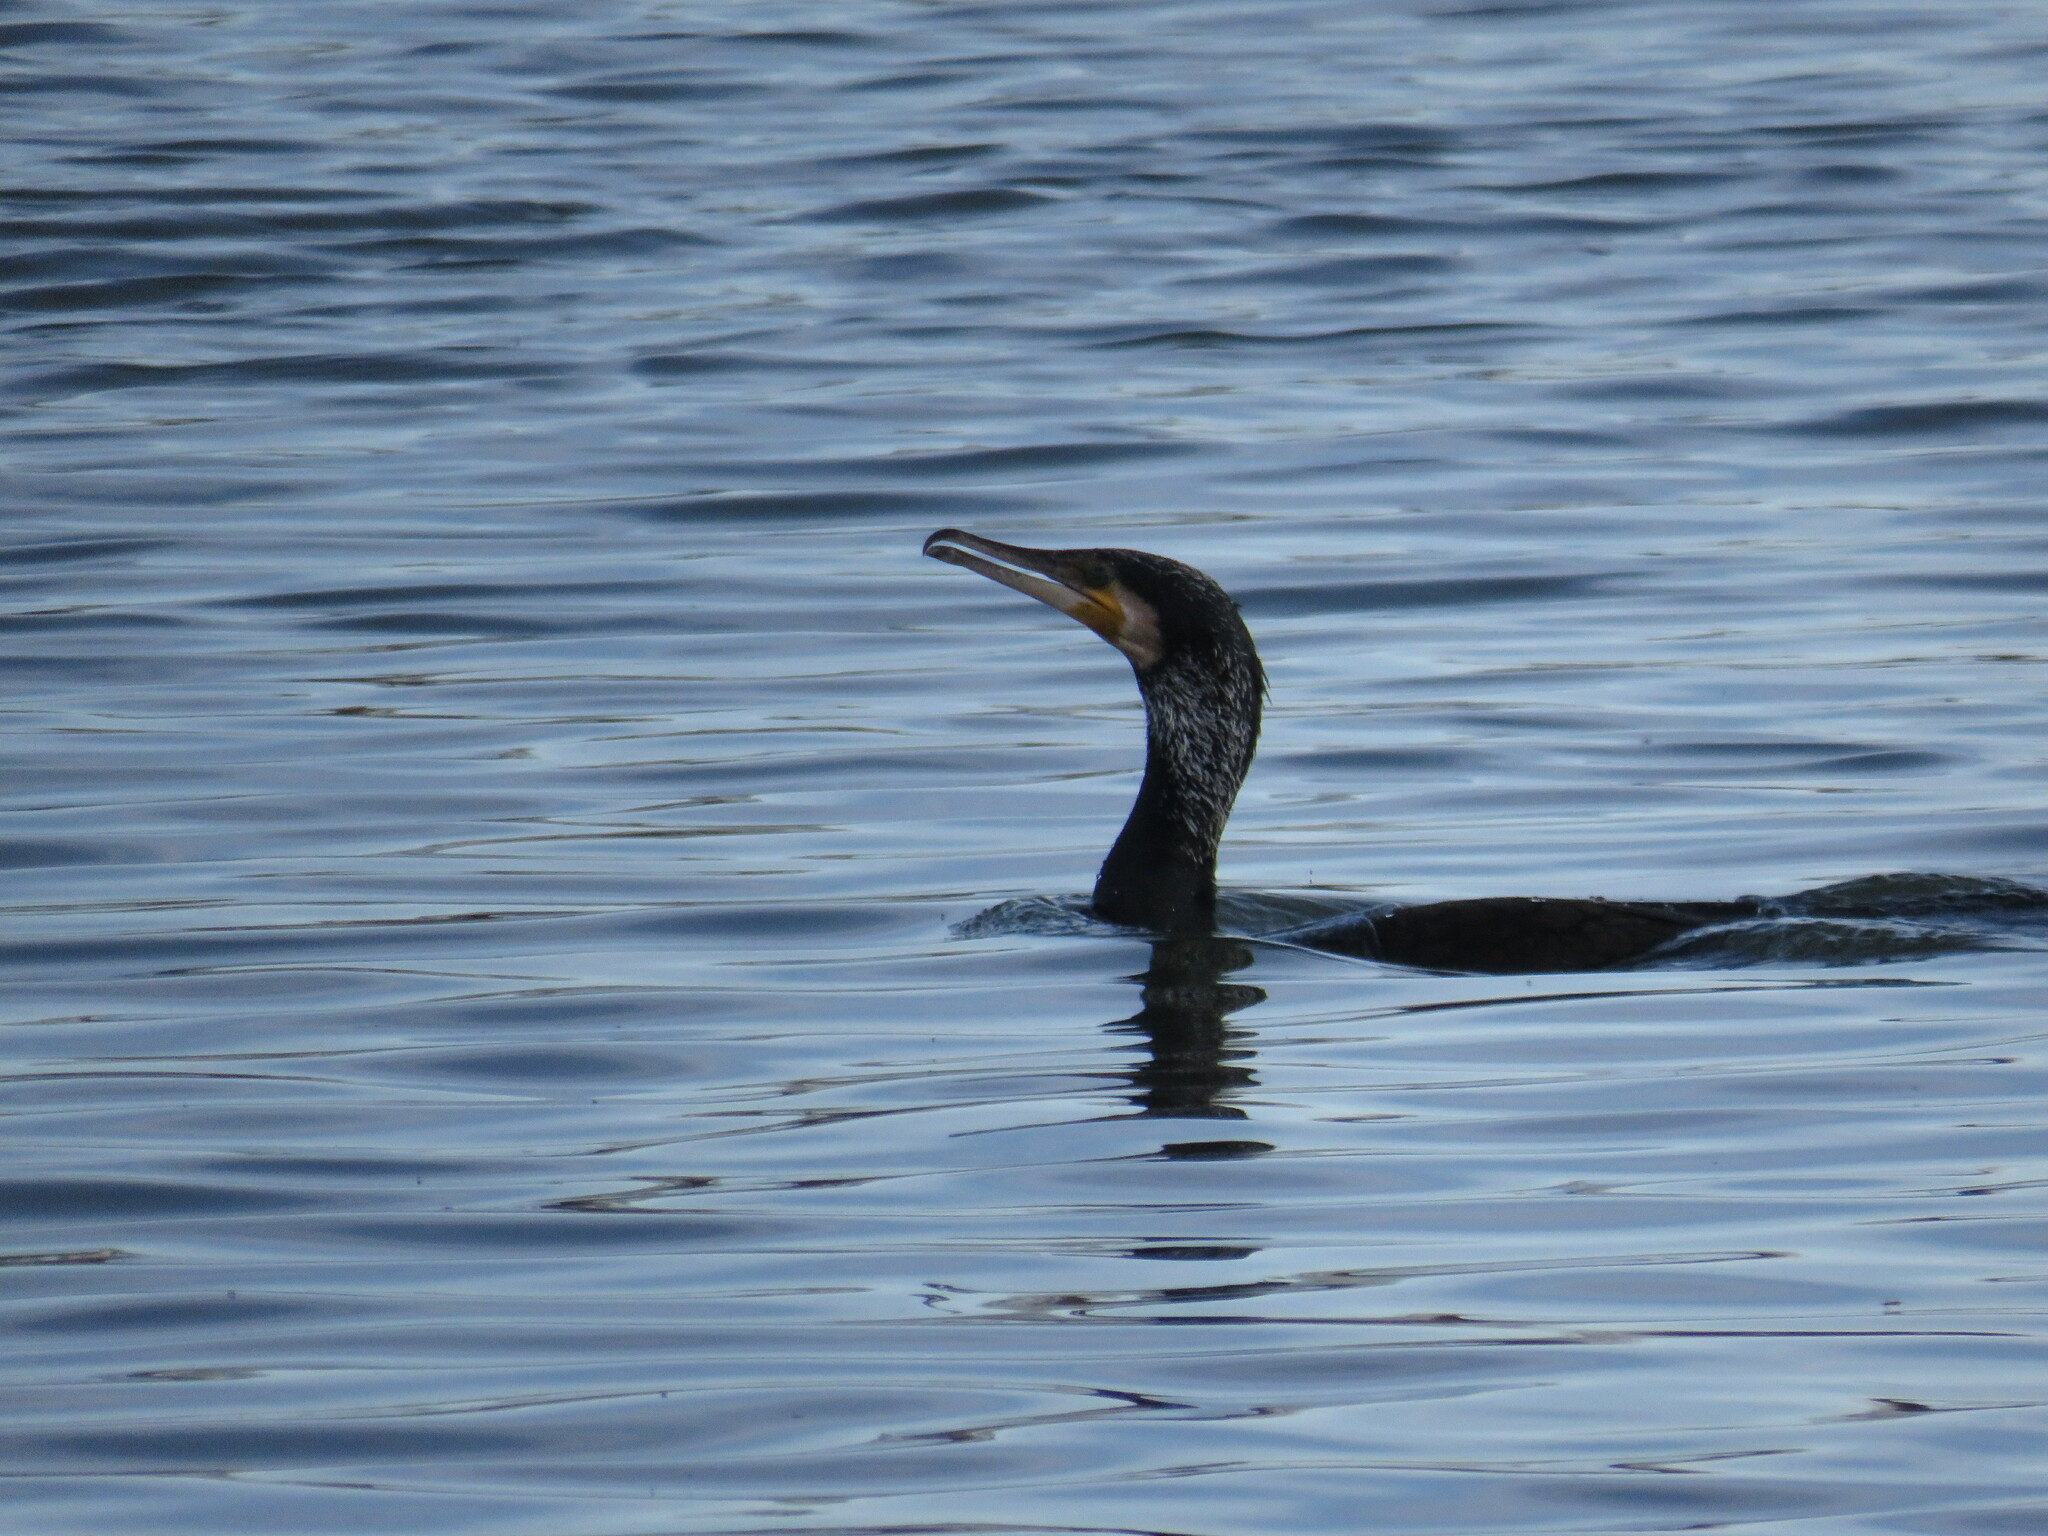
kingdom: Animalia
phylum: Chordata
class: Aves
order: Suliformes
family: Phalacrocoracidae
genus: Phalacrocorax
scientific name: Phalacrocorax carbo
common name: Great cormorant
